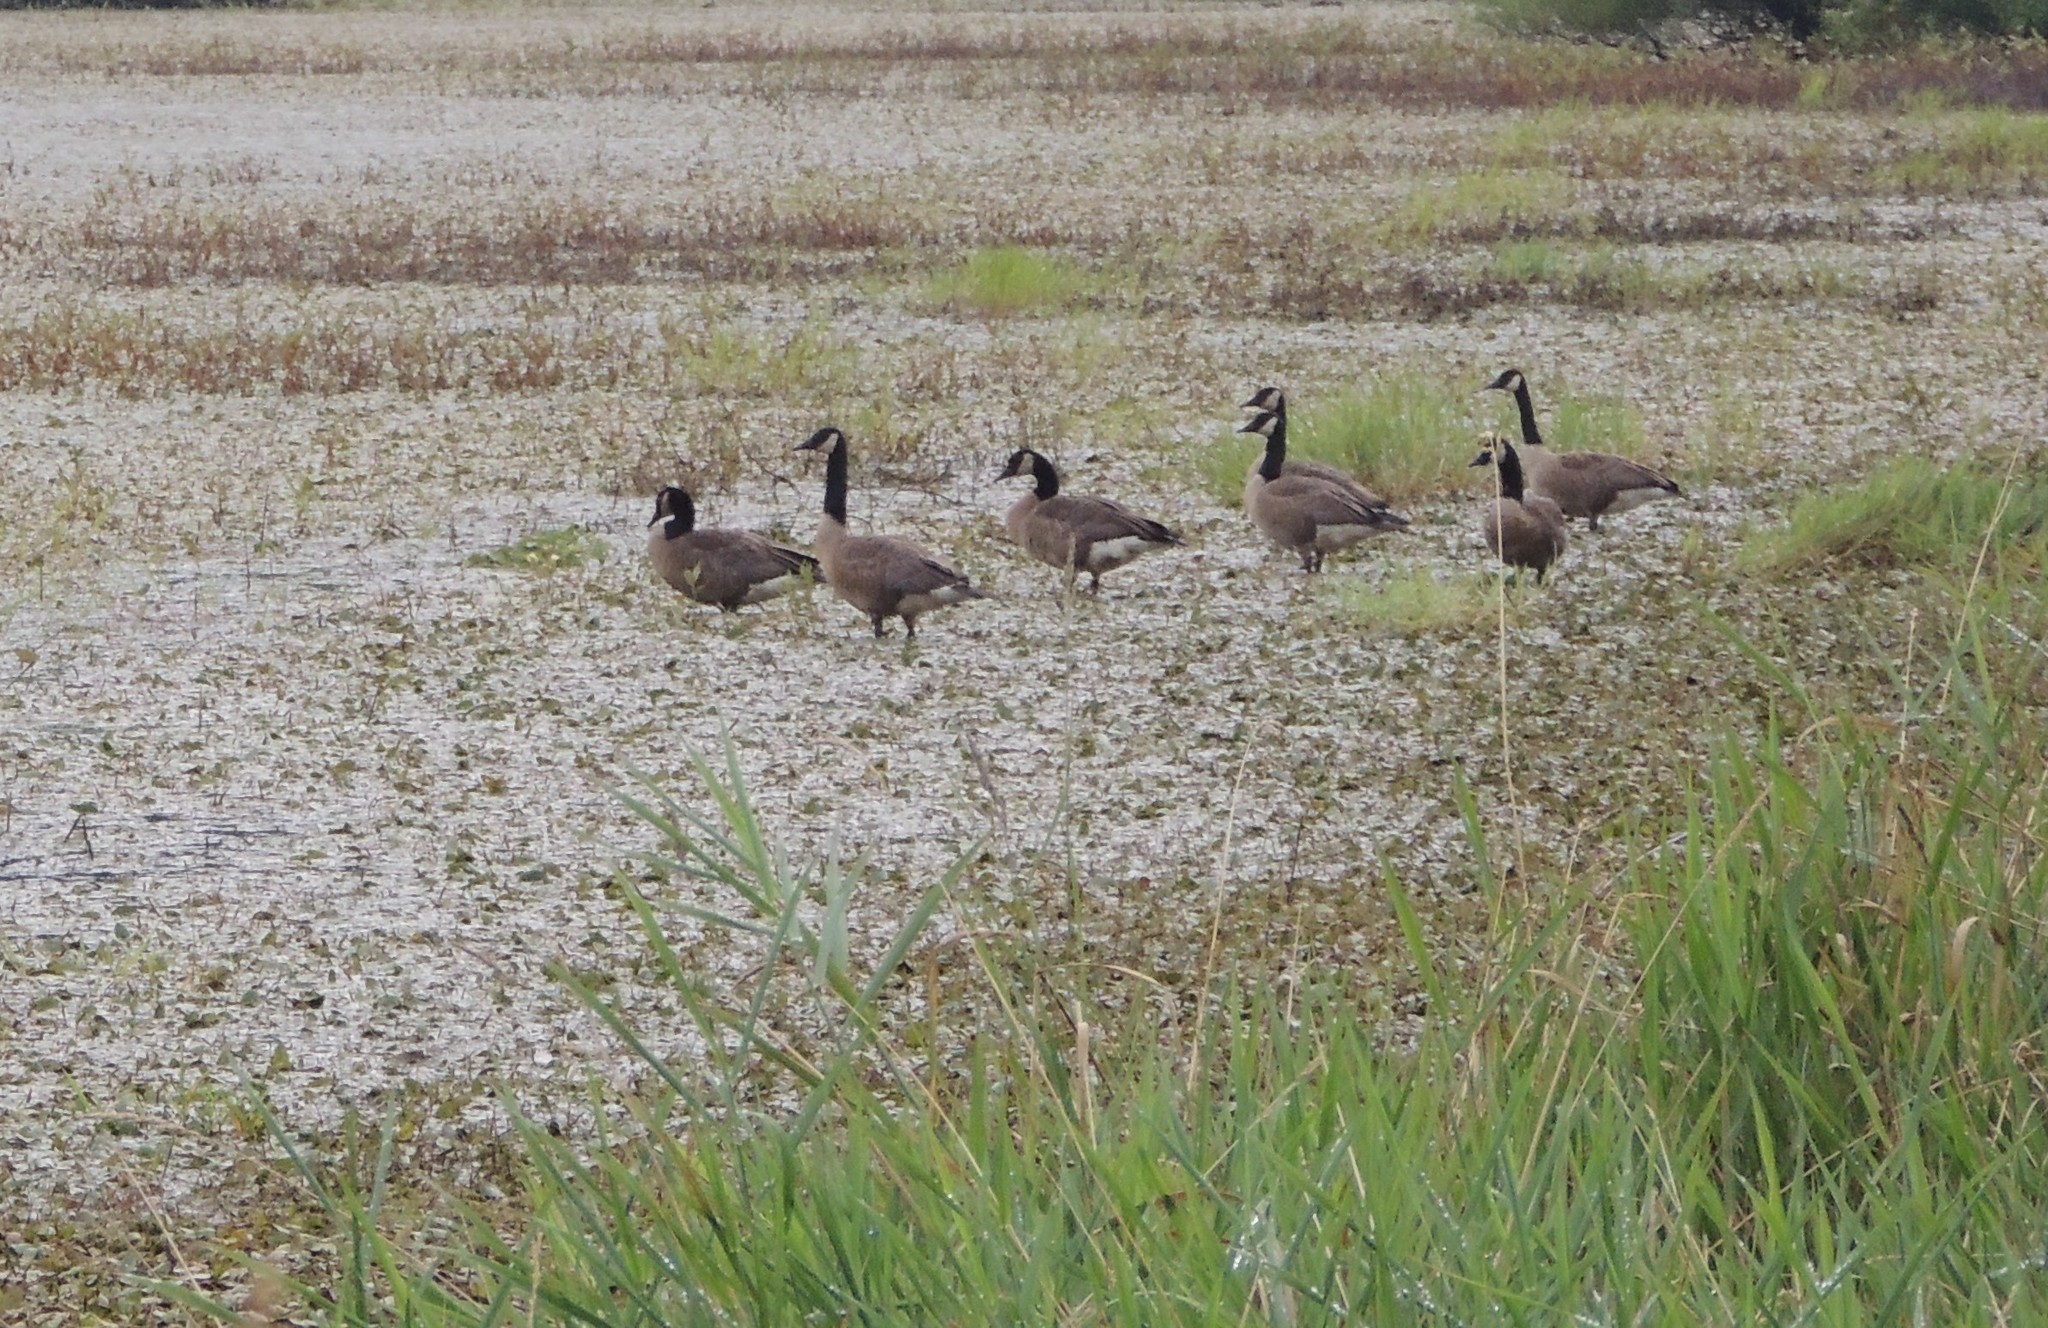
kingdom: Animalia
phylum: Chordata
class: Aves
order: Anseriformes
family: Anatidae
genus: Branta
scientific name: Branta canadensis
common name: Canada goose
